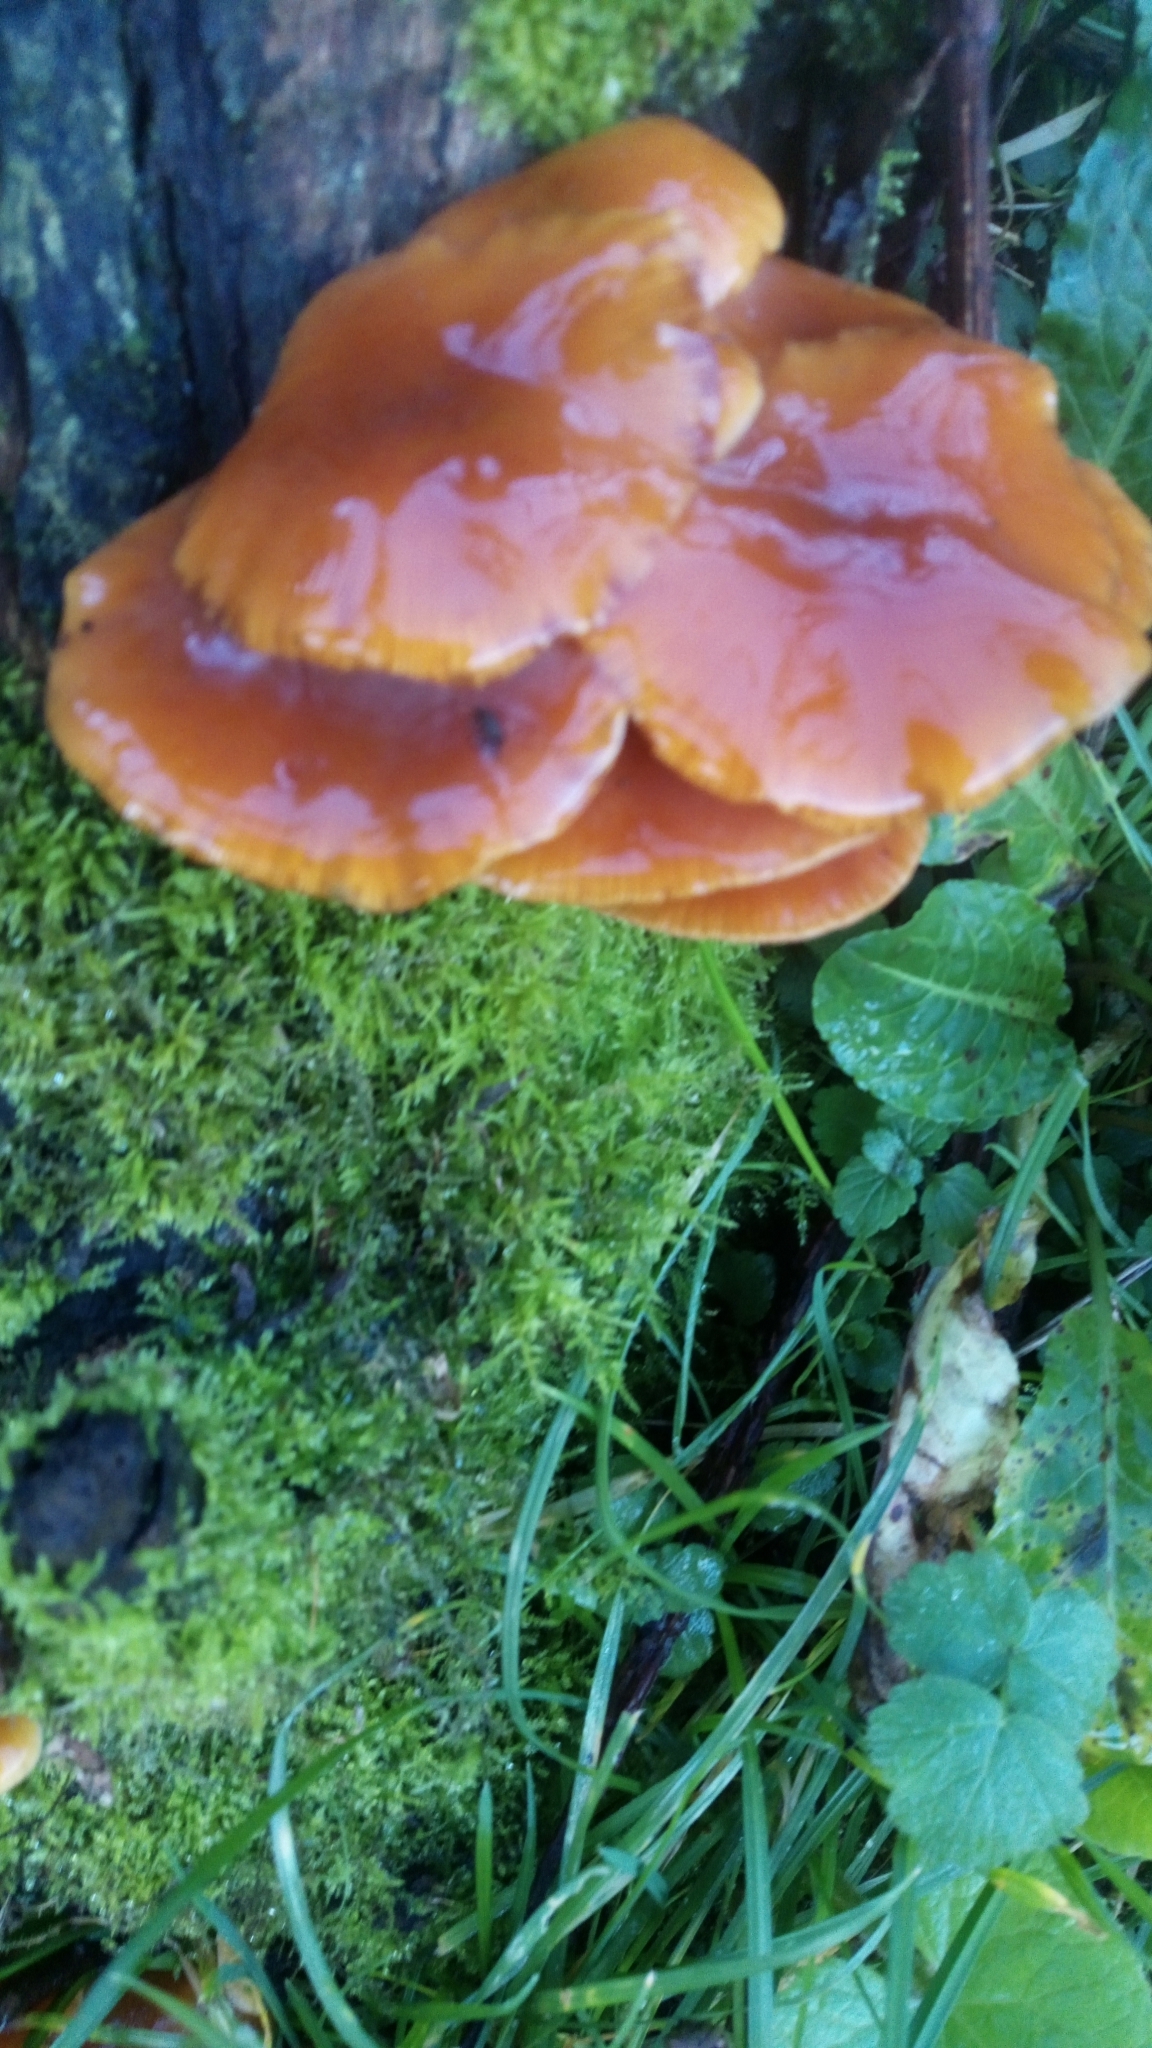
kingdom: Fungi
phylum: Basidiomycota
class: Agaricomycetes
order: Agaricales
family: Physalacriaceae
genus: Flammulina
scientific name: Flammulina
